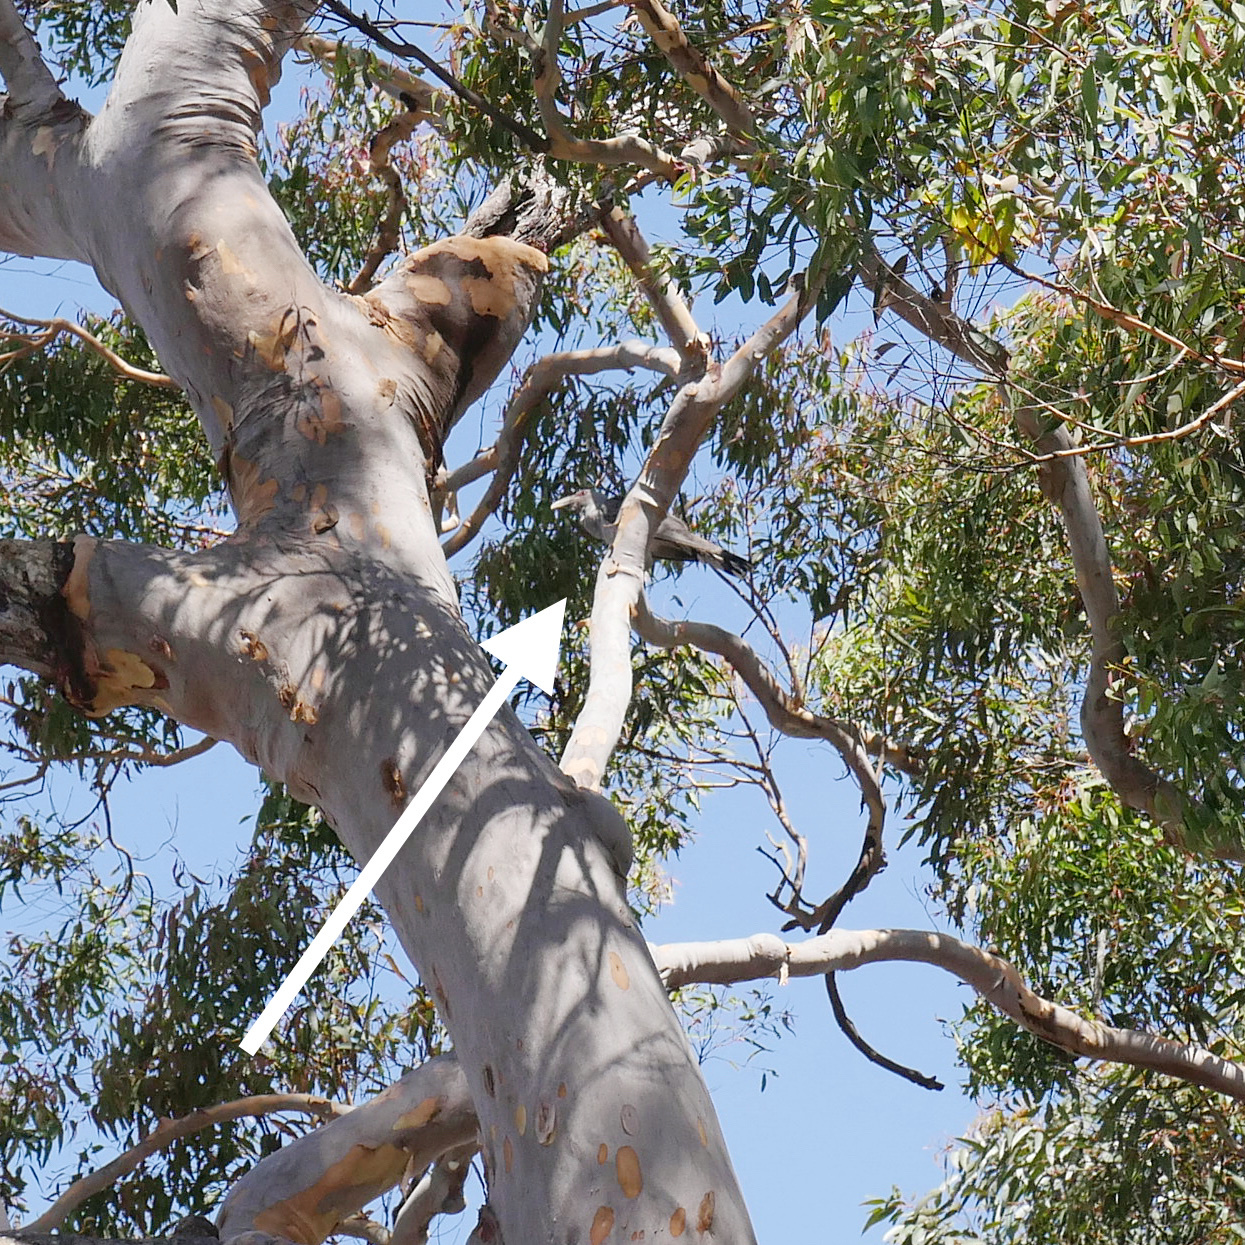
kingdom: Animalia
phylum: Chordata
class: Aves
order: Cuculiformes
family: Cuculidae
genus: Scythrops
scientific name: Scythrops novaehollandiae
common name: Channel-billed cuckoo
